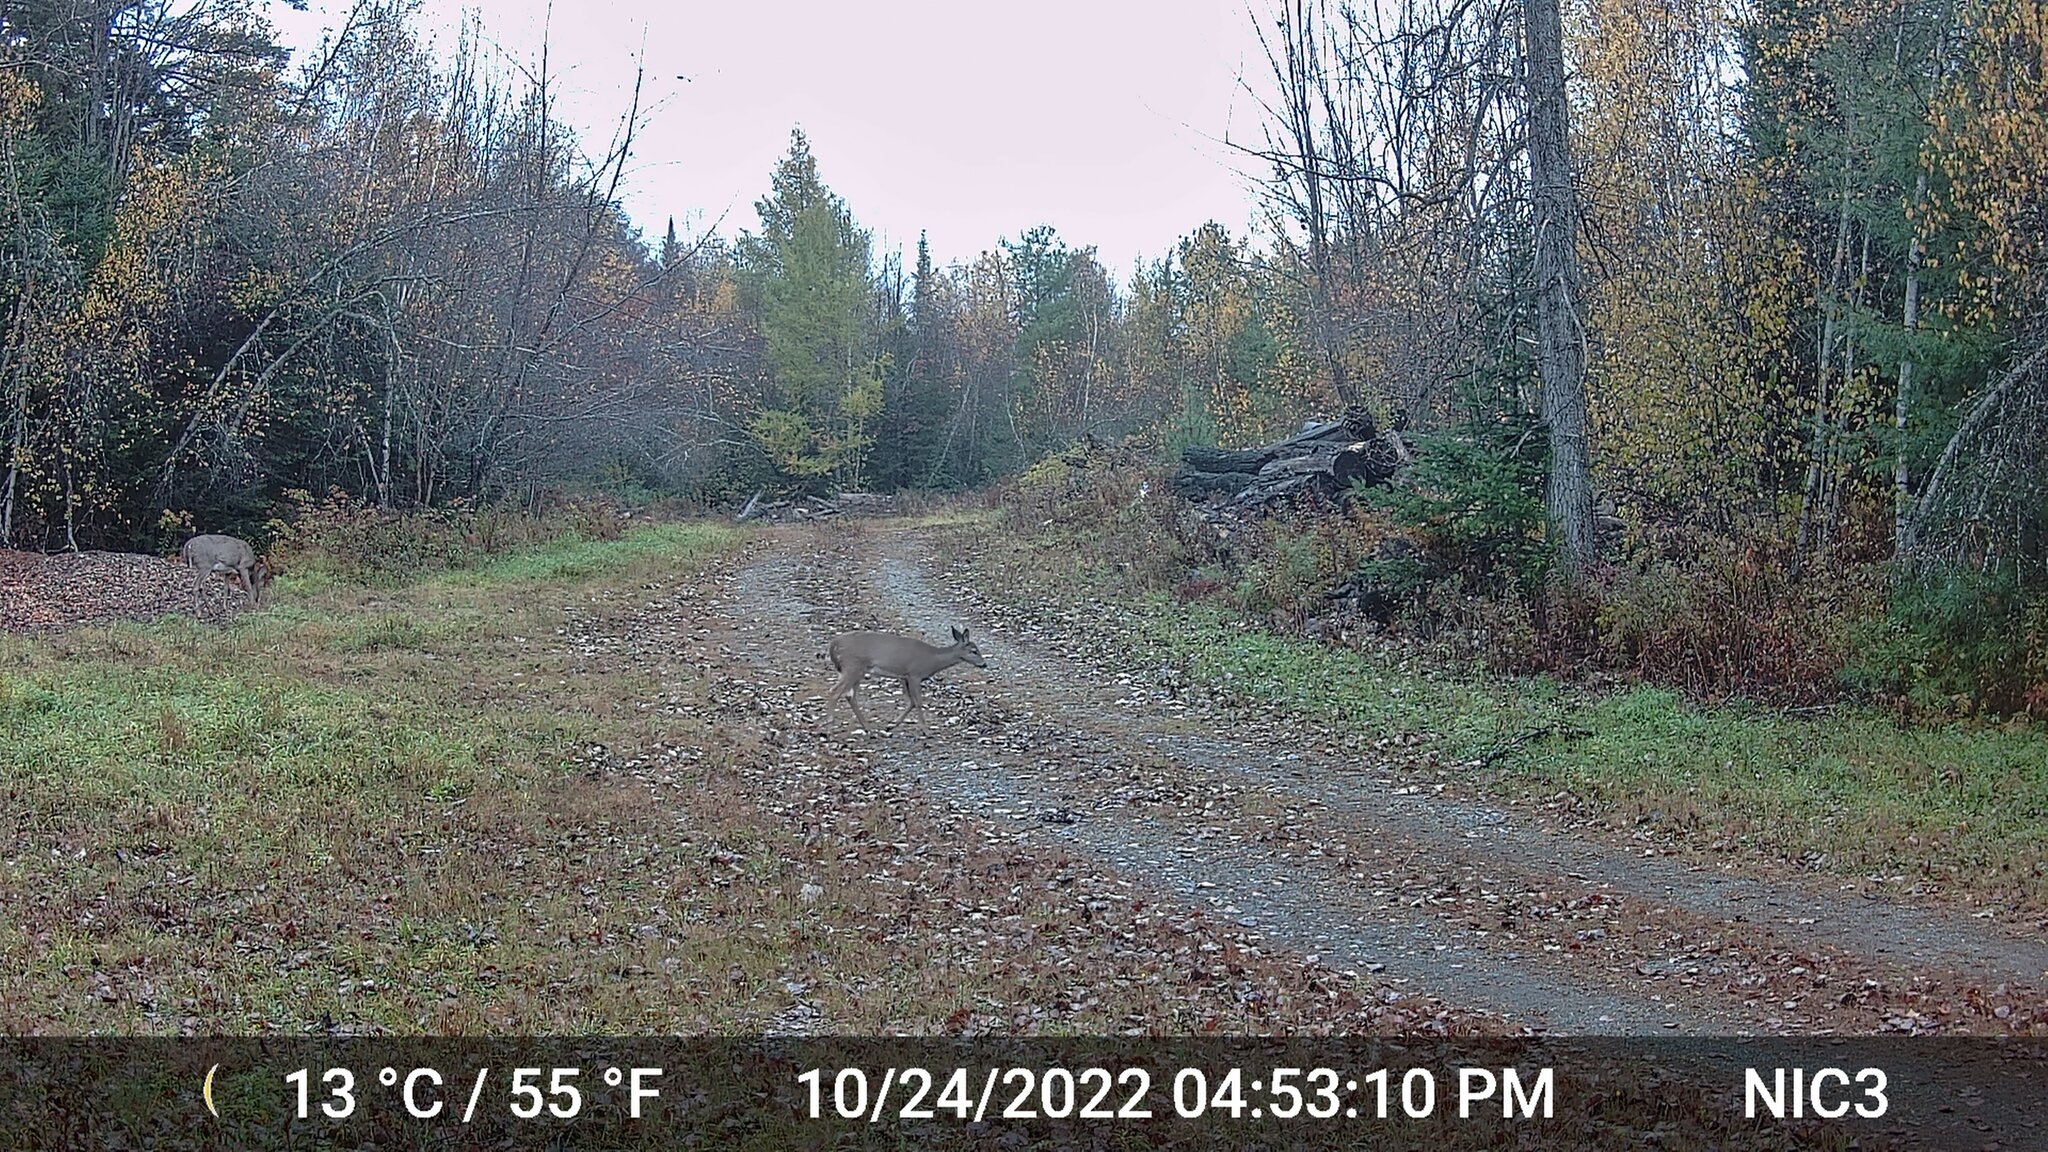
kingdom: Animalia
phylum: Chordata
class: Mammalia
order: Artiodactyla
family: Cervidae
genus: Odocoileus
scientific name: Odocoileus virginianus
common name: White-tailed deer
